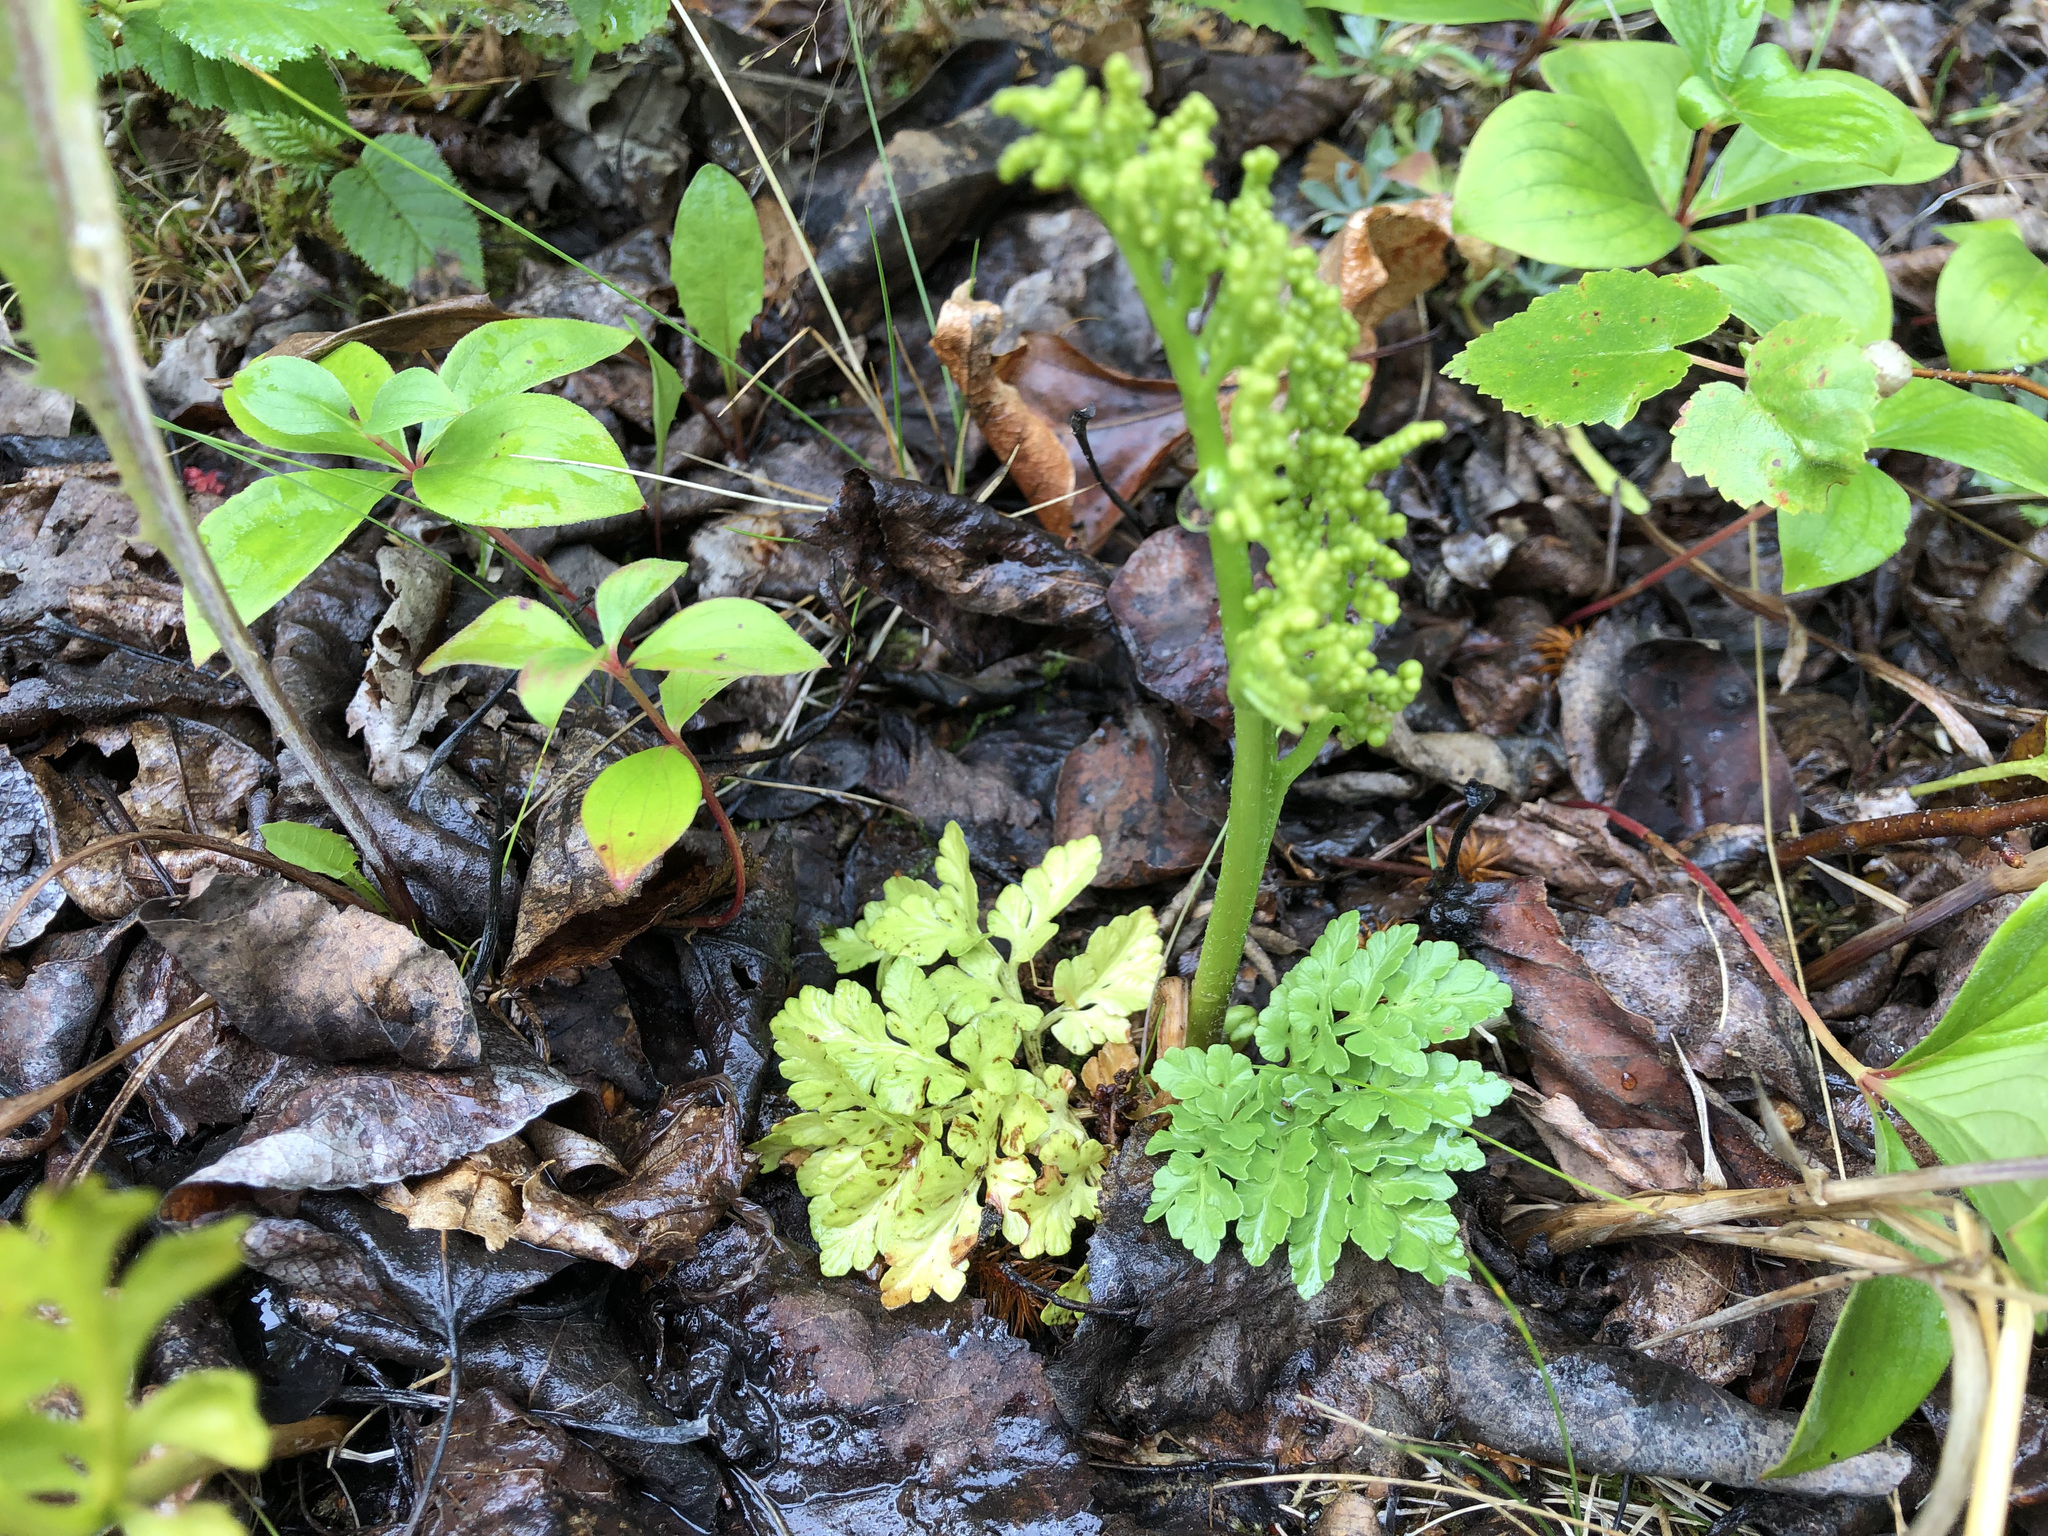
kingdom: Plantae
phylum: Tracheophyta
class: Polypodiopsida
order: Ophioglossales
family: Ophioglossaceae
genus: Sceptridium
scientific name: Sceptridium multifidum
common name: Leathery grape fern
